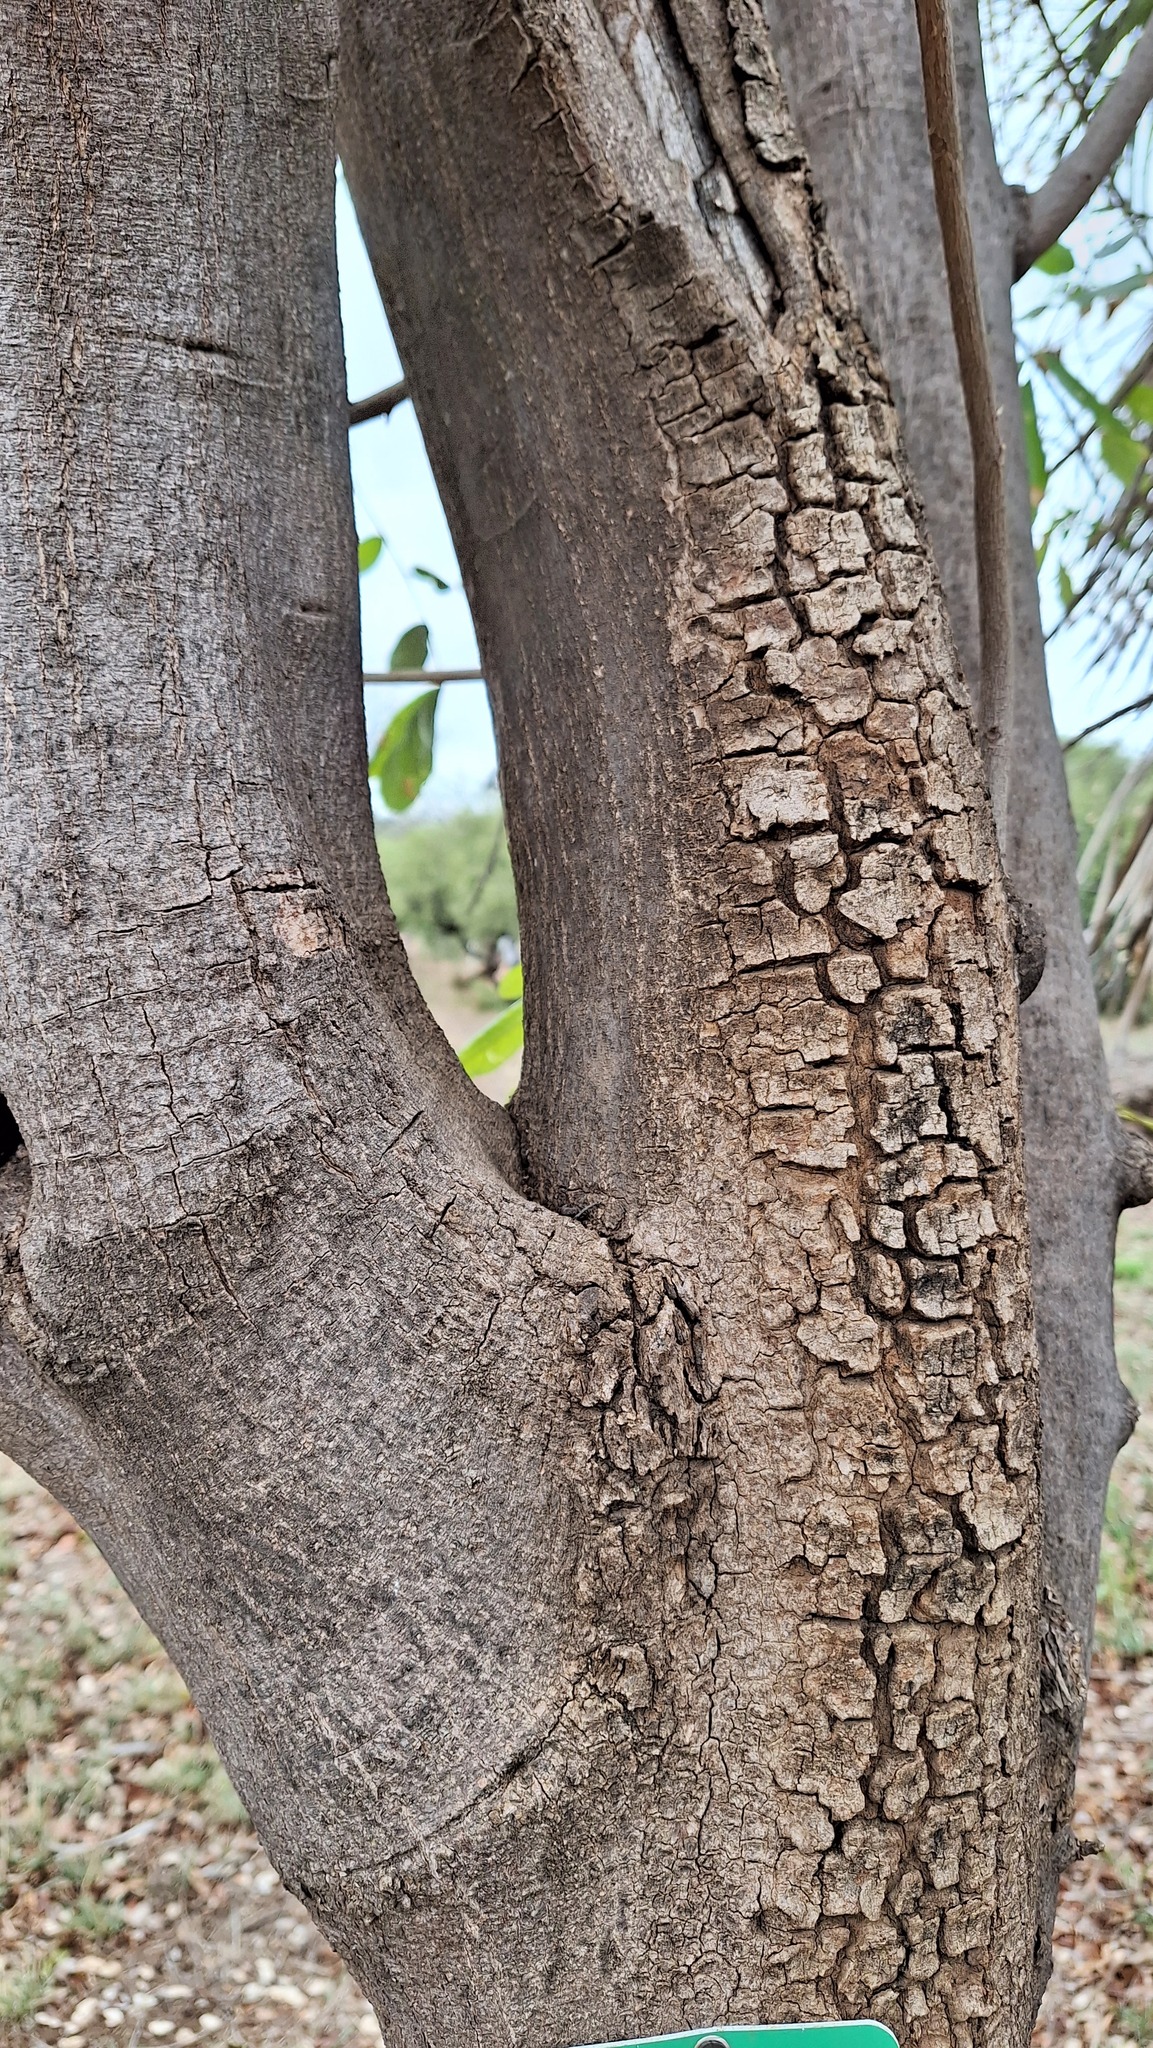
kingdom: Plantae
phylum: Tracheophyta
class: Magnoliopsida
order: Sapindales
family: Meliaceae
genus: Trichilia
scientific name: Trichilia emetica
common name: Christmas-bells
